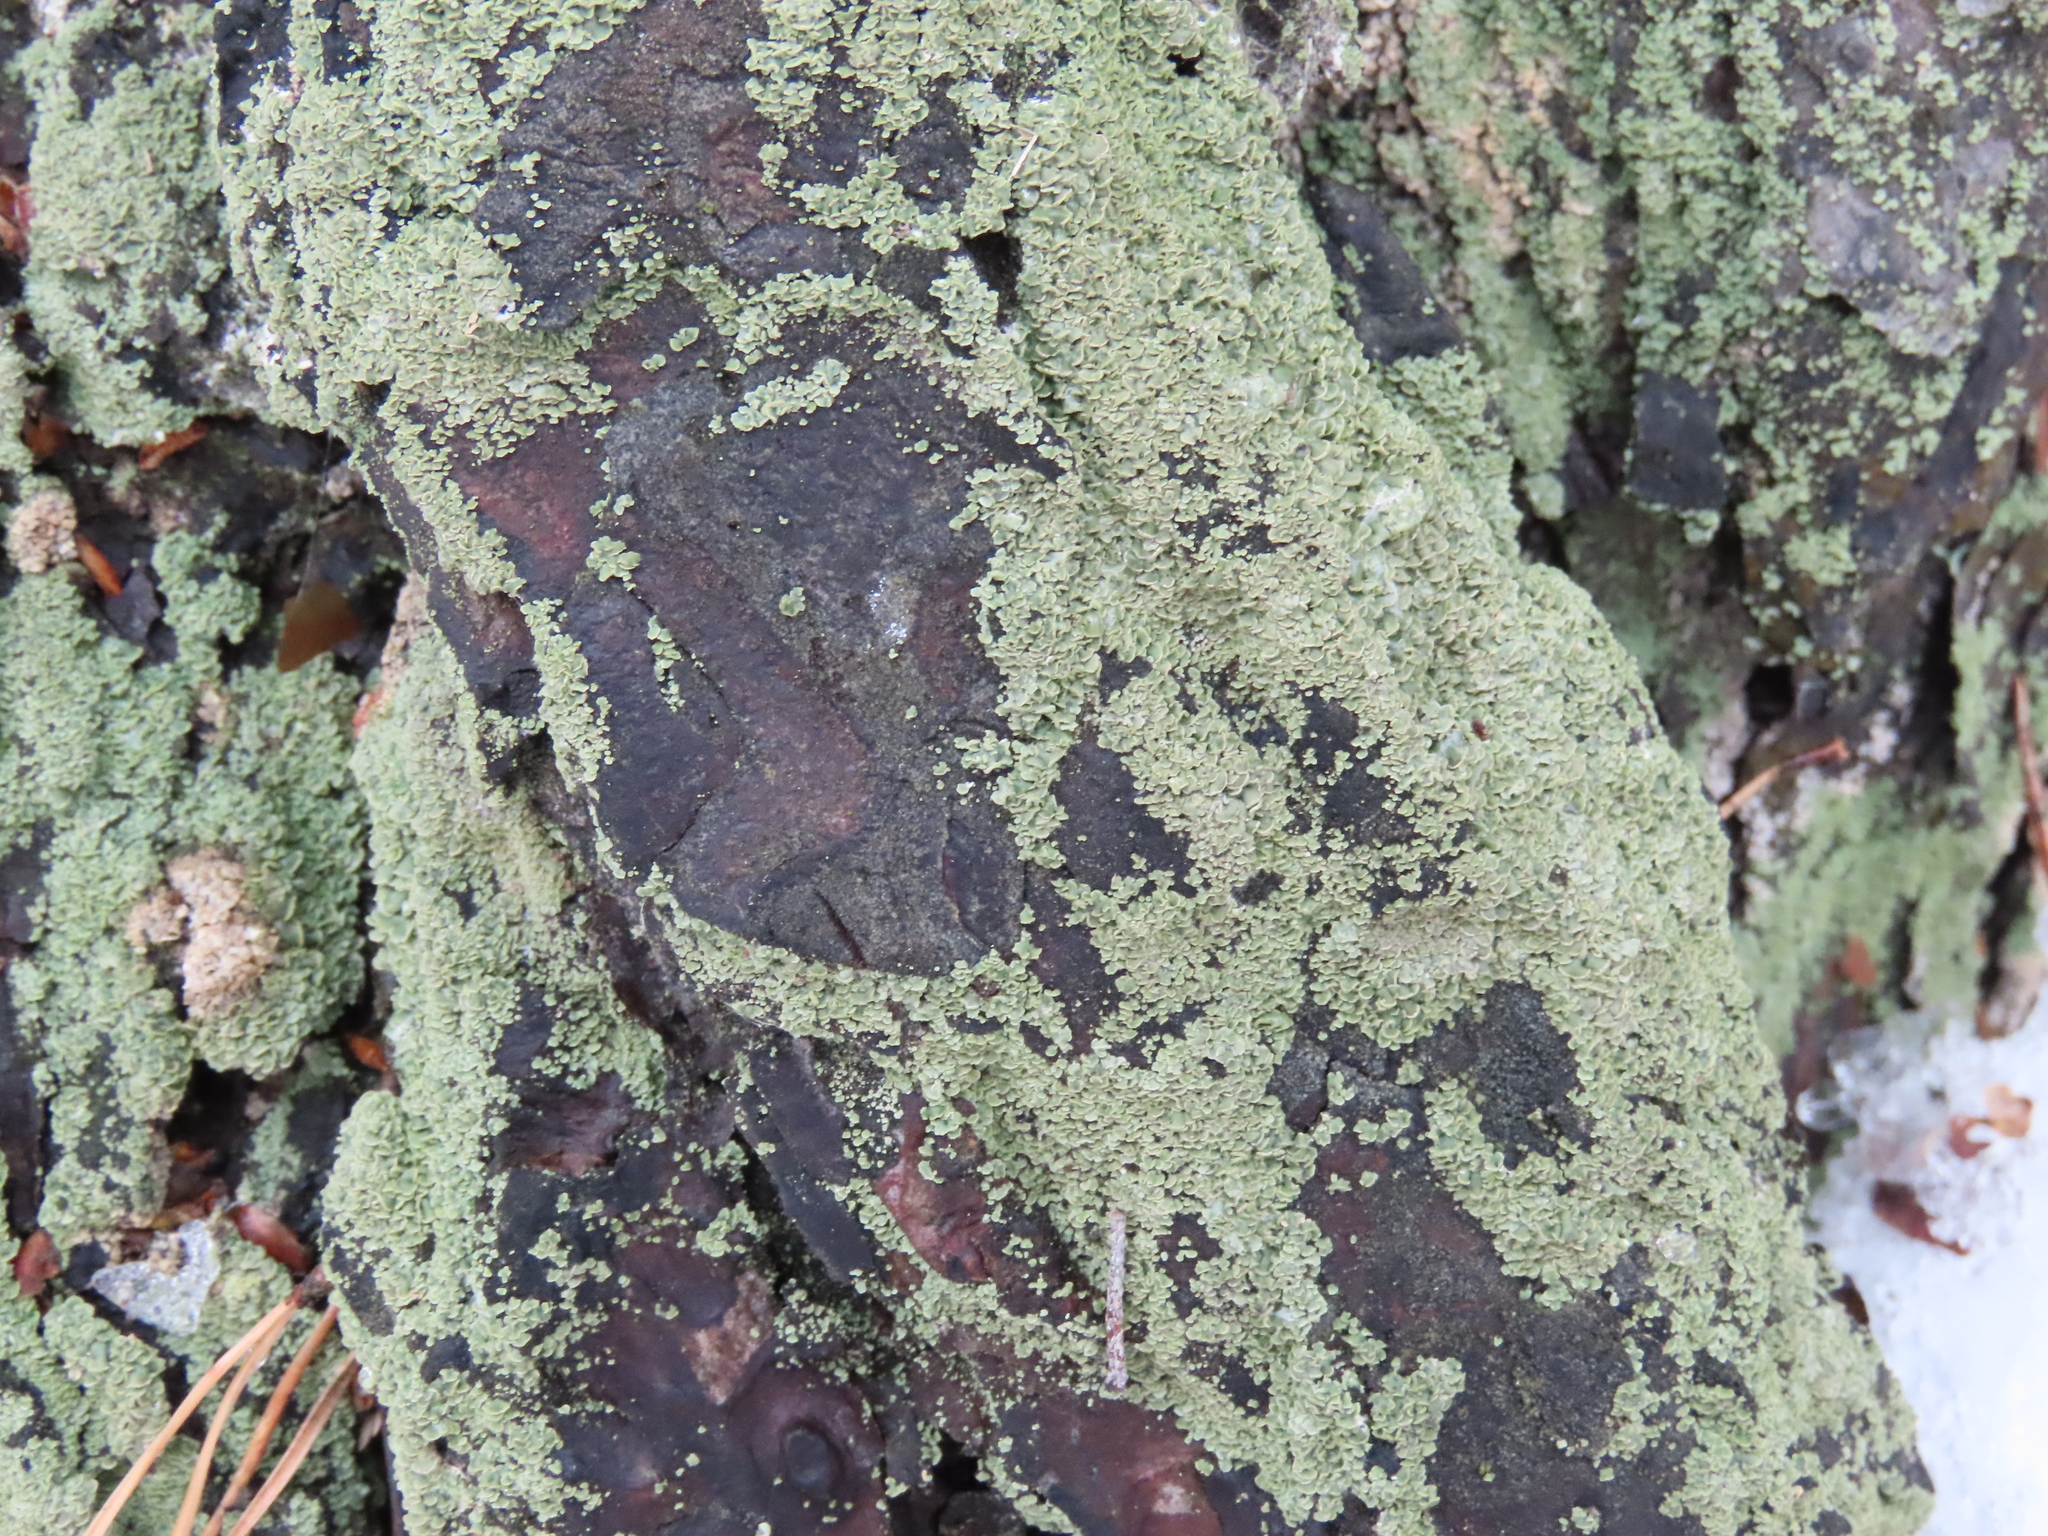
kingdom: Fungi
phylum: Ascomycota
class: Lecanoromycetes
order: Umbilicariales
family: Ophioparmaceae
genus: Hypocenomyce
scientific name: Hypocenomyce scalaris
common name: Common clam lichen
